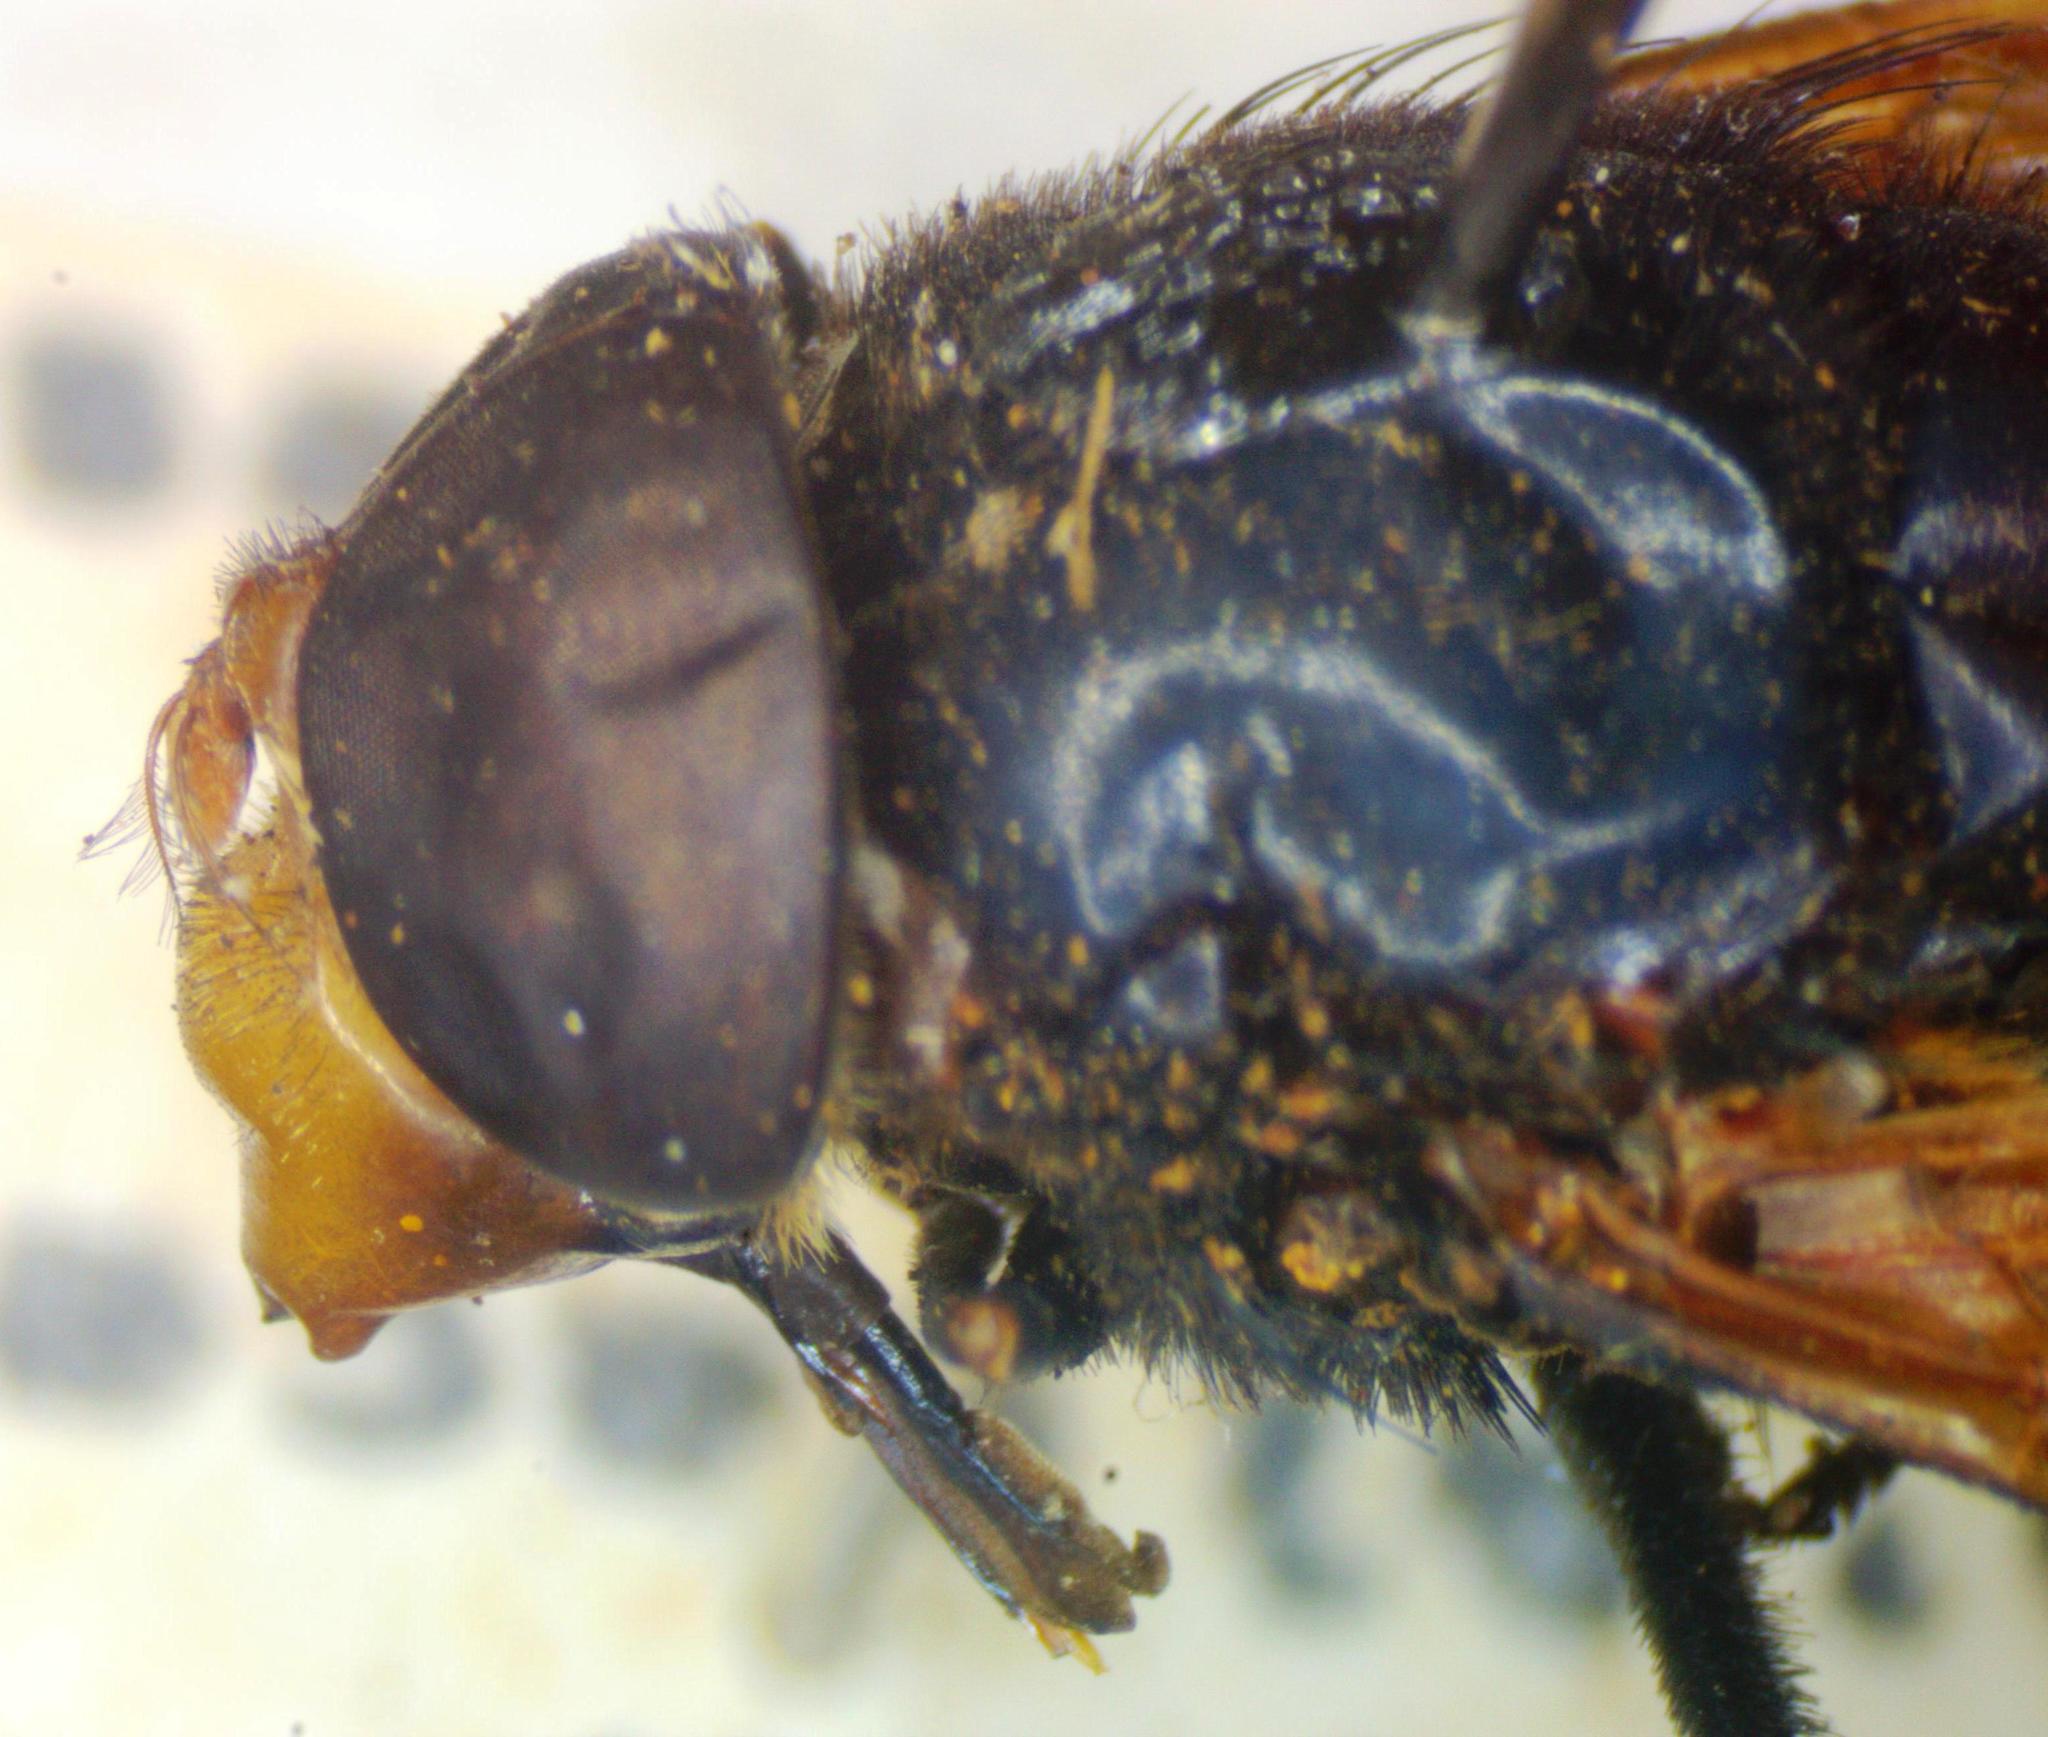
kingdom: Animalia
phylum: Arthropoda
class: Insecta
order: Diptera
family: Syrphidae
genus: Volucella
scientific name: Volucella pellucens
